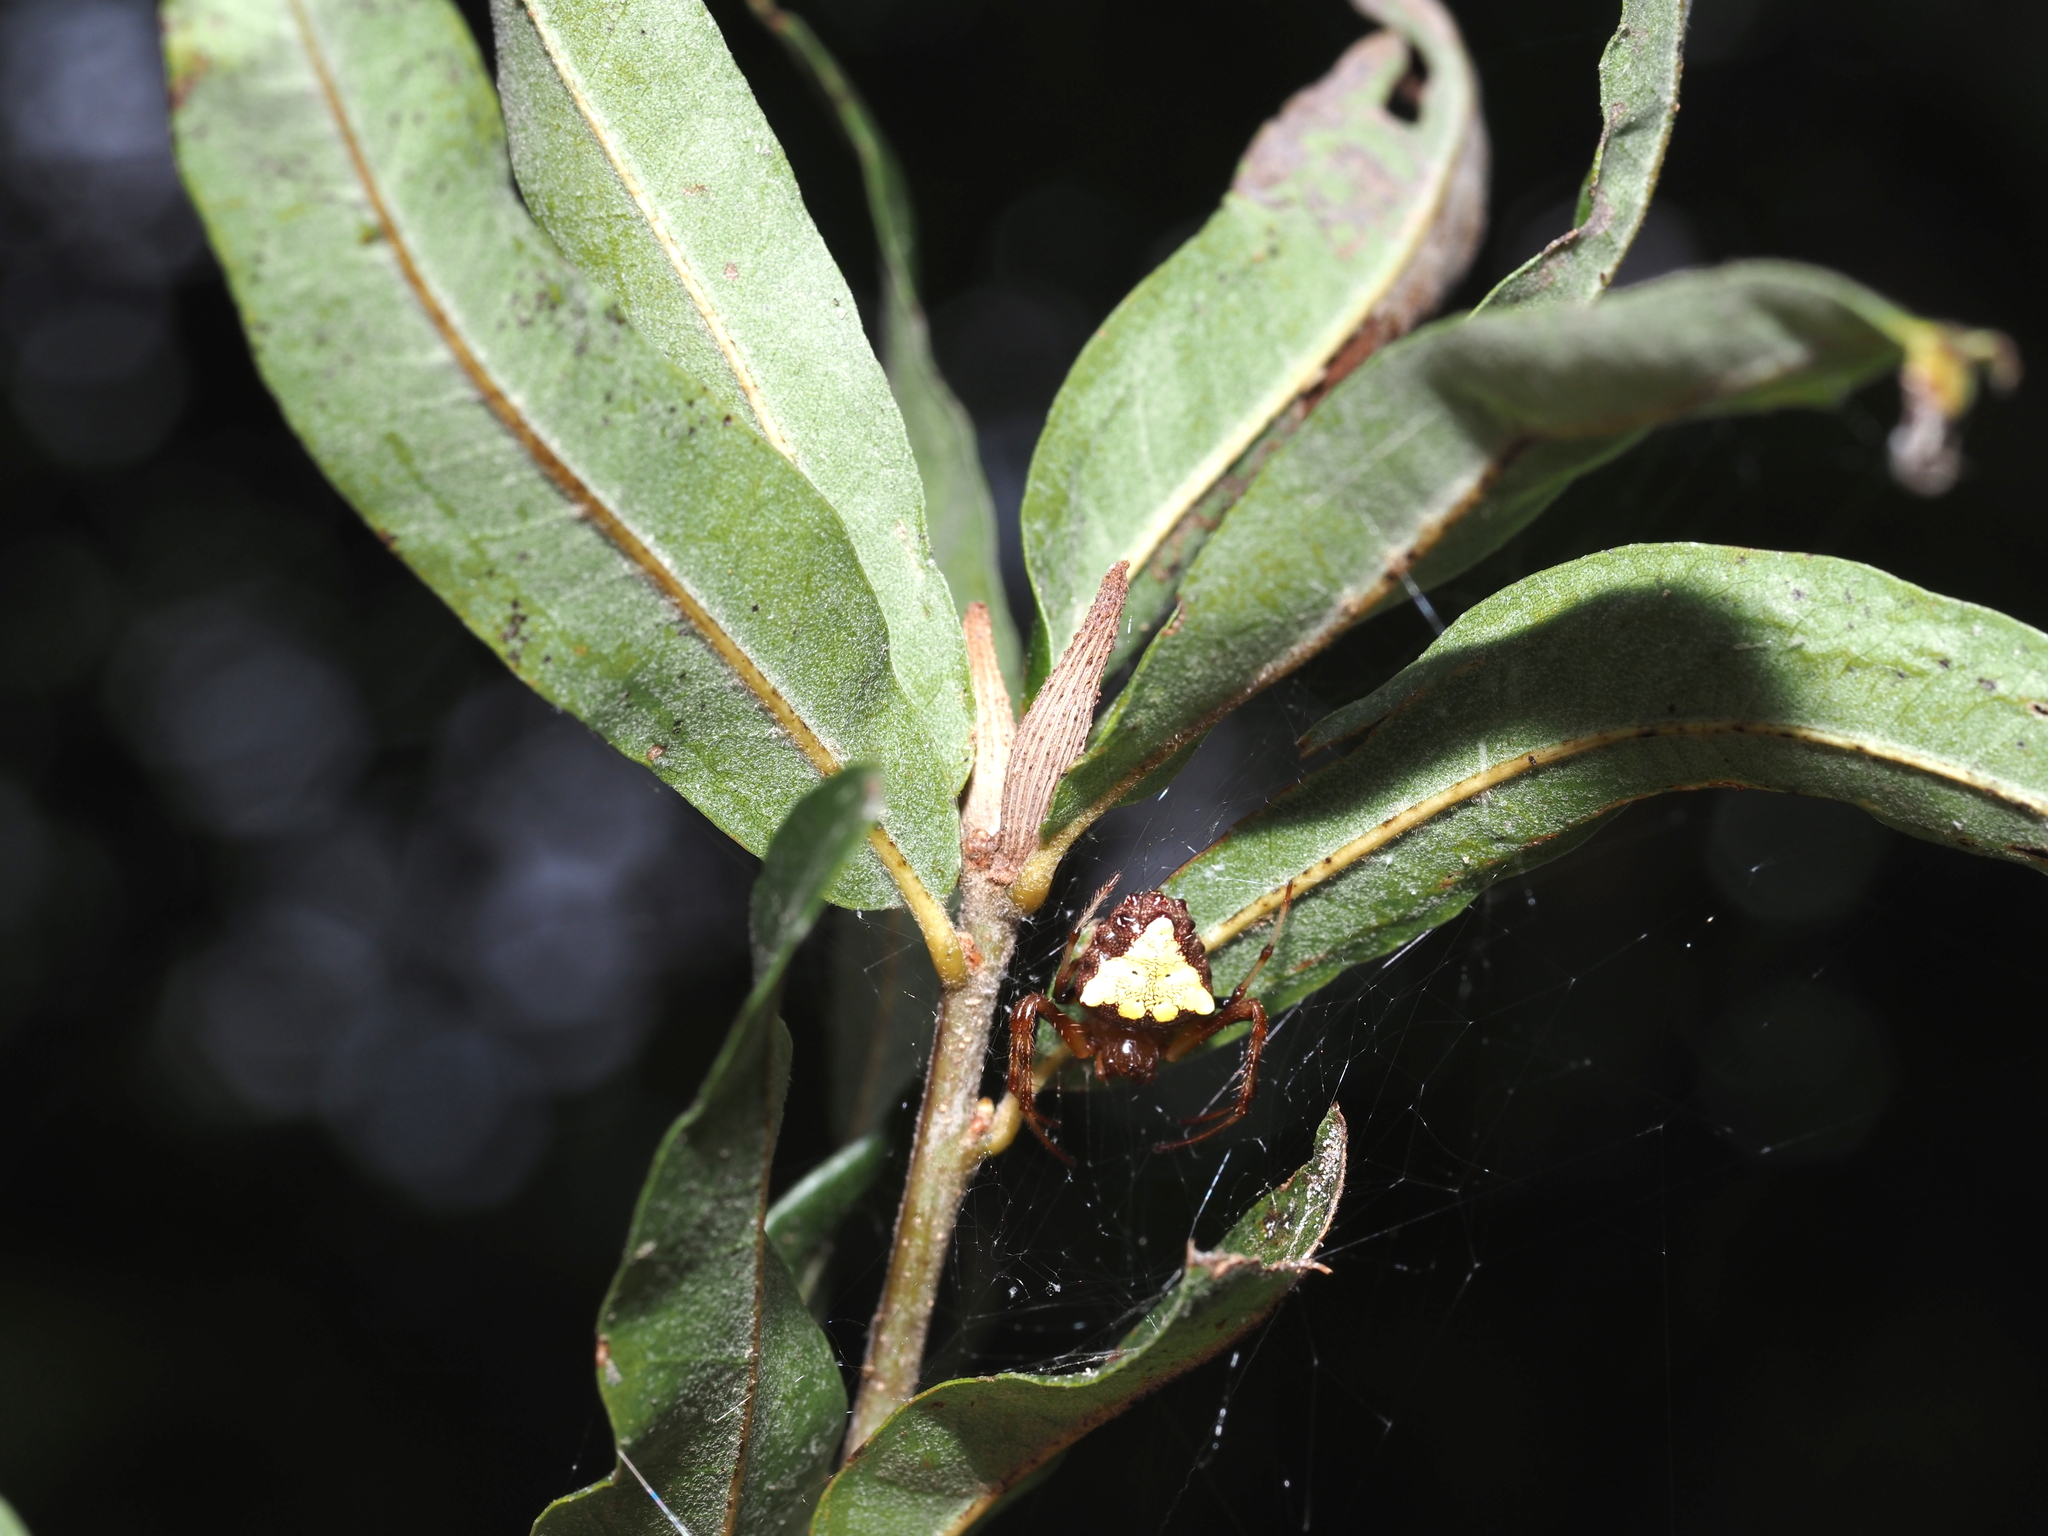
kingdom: Animalia
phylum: Arthropoda
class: Insecta
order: Hymenoptera
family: Cynipidae
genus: Eumayria
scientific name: Eumayria
